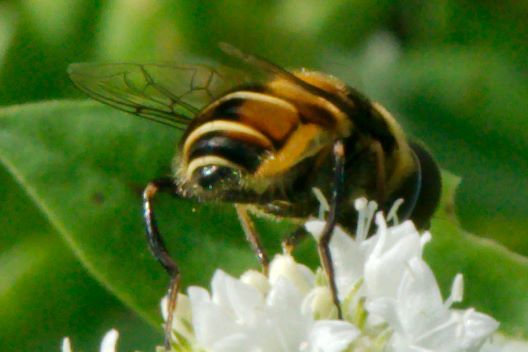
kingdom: Animalia
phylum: Arthropoda
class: Insecta
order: Diptera
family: Syrphidae
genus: Palpada
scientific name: Palpada agrorum
